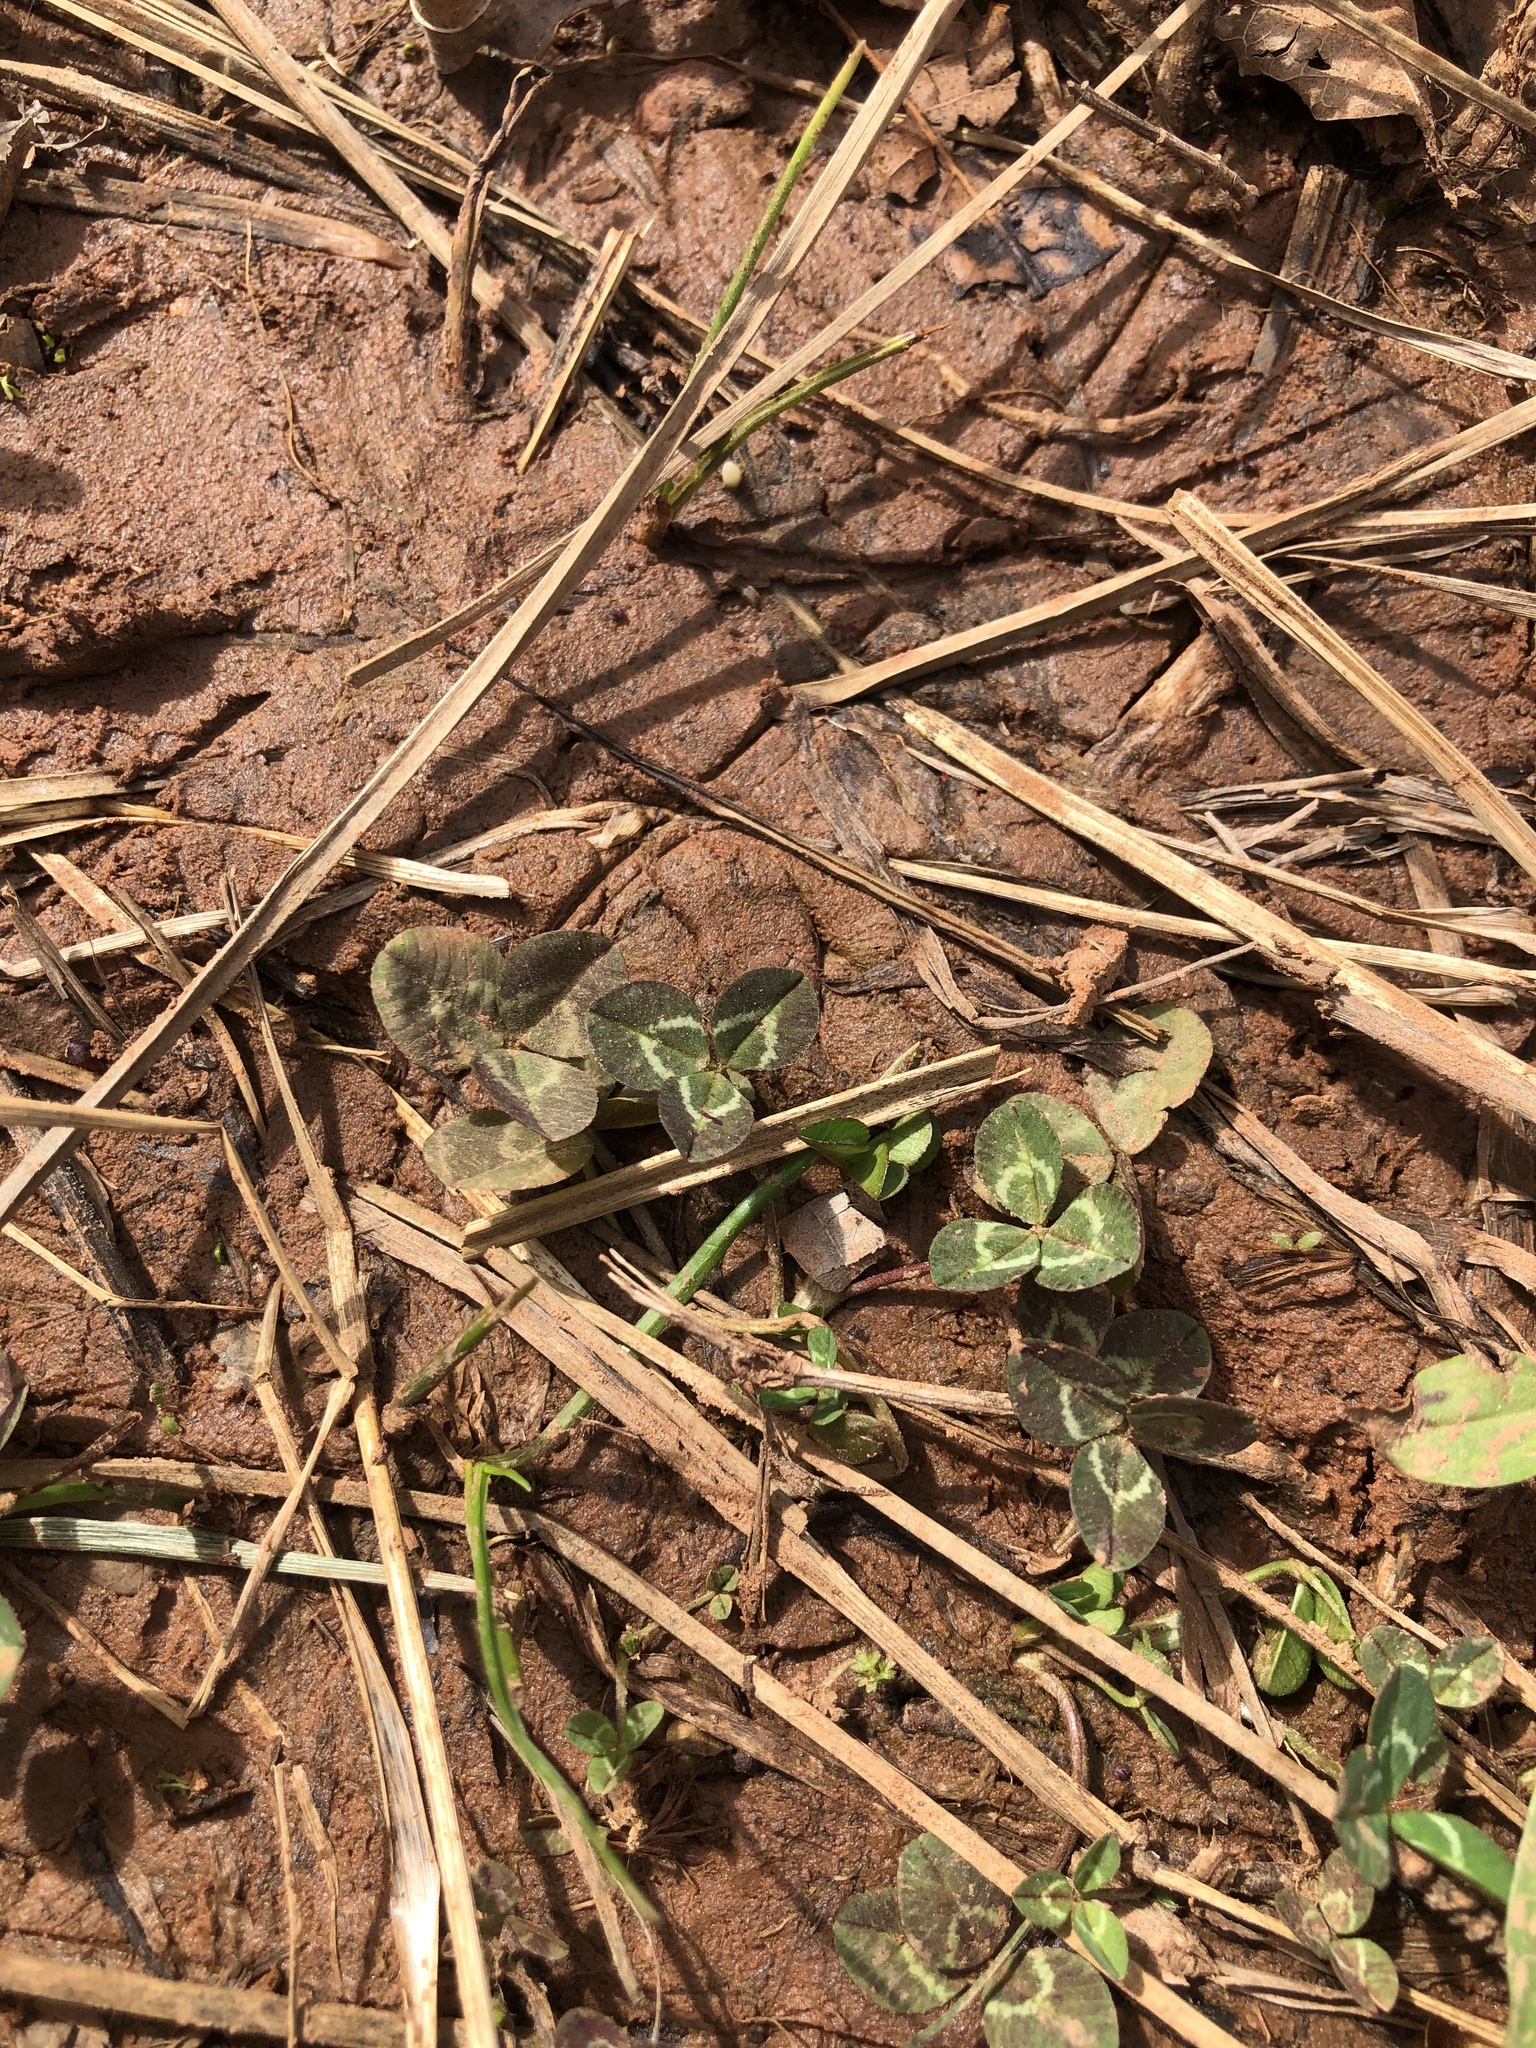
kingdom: Plantae
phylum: Tracheophyta
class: Magnoliopsida
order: Fabales
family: Fabaceae
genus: Trifolium
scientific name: Trifolium repens
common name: White clover
